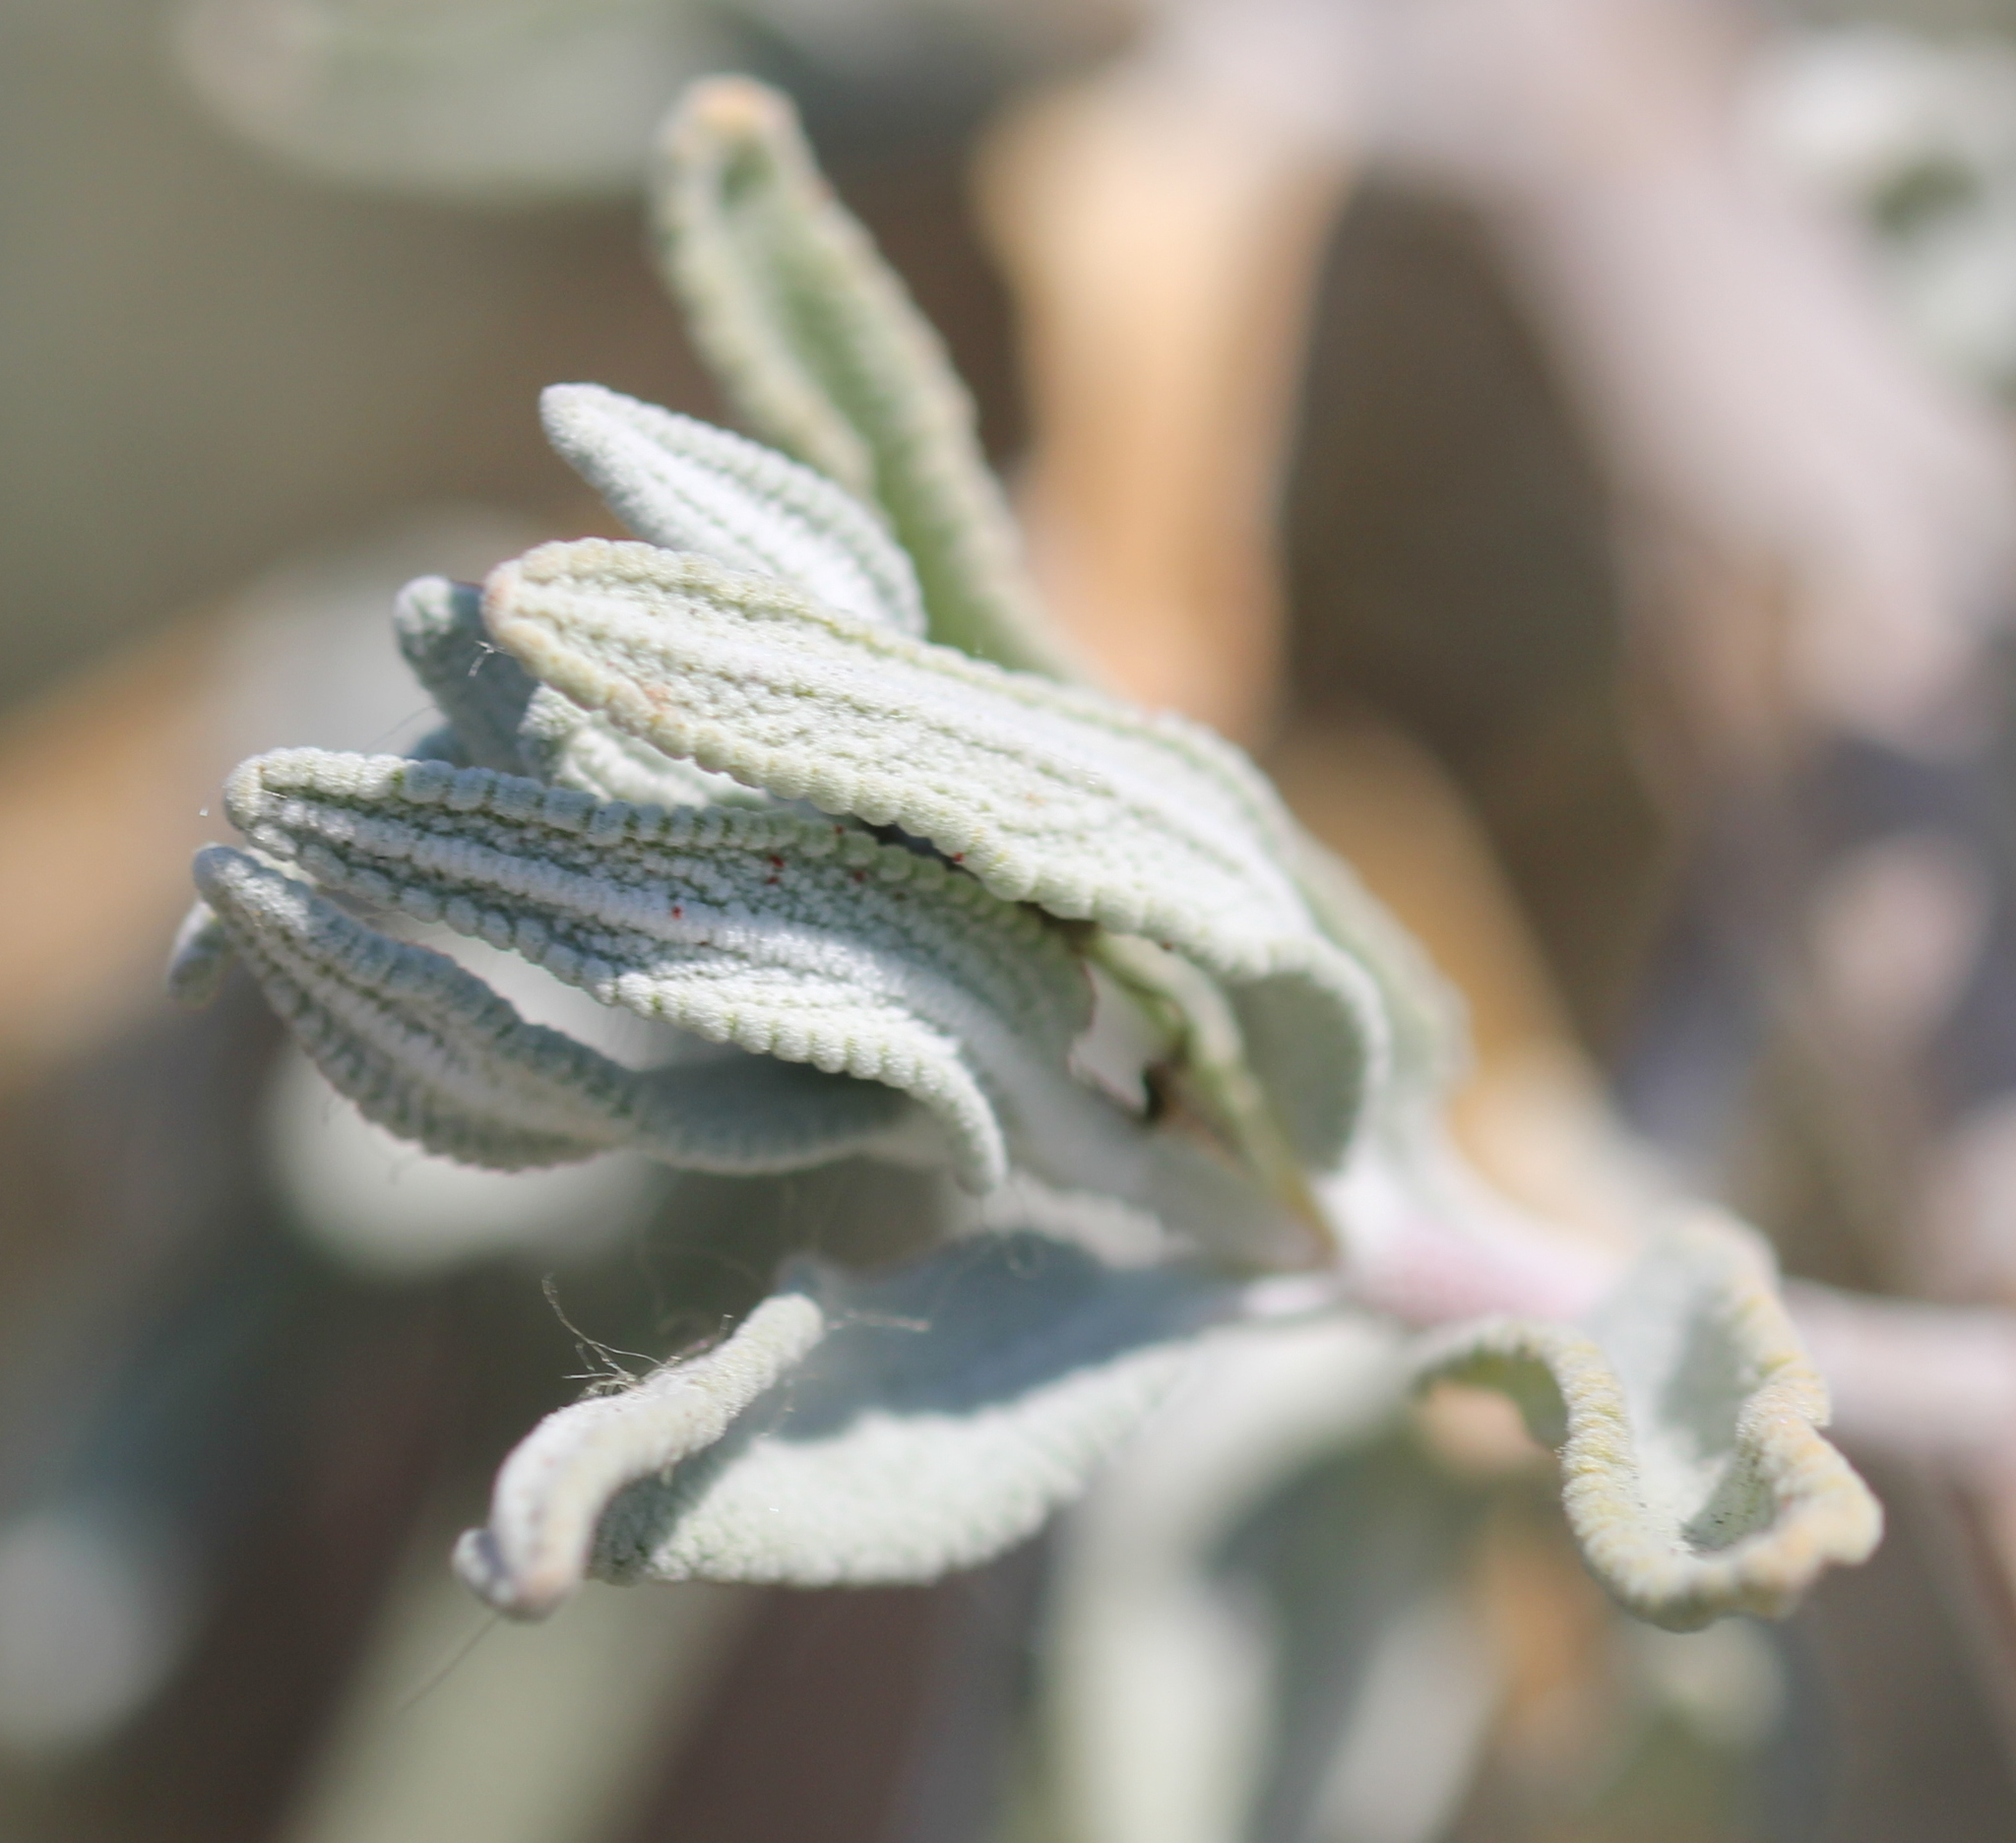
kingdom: Plantae
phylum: Tracheophyta
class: Magnoliopsida
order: Lamiales
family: Lamiaceae
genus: Salvia
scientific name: Salvia leucophylla
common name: Purple sage
